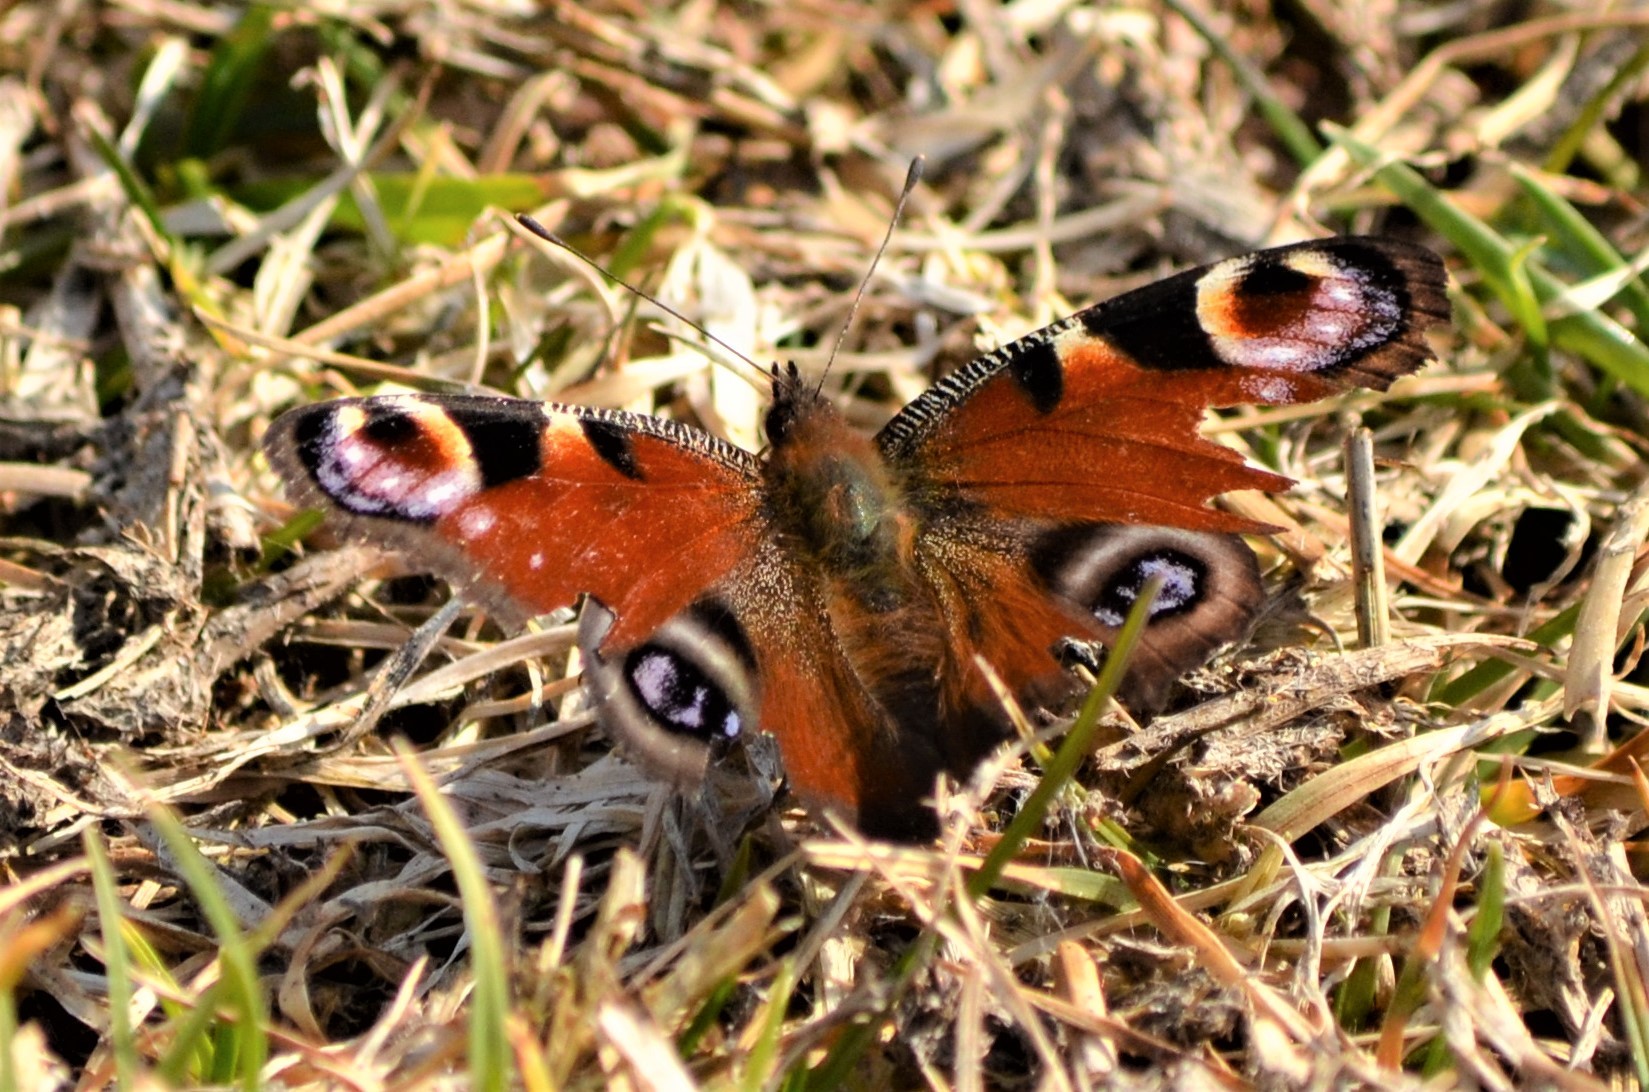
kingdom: Animalia
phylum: Arthropoda
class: Insecta
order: Lepidoptera
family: Nymphalidae
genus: Aglais
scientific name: Aglais io
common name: Peacock
